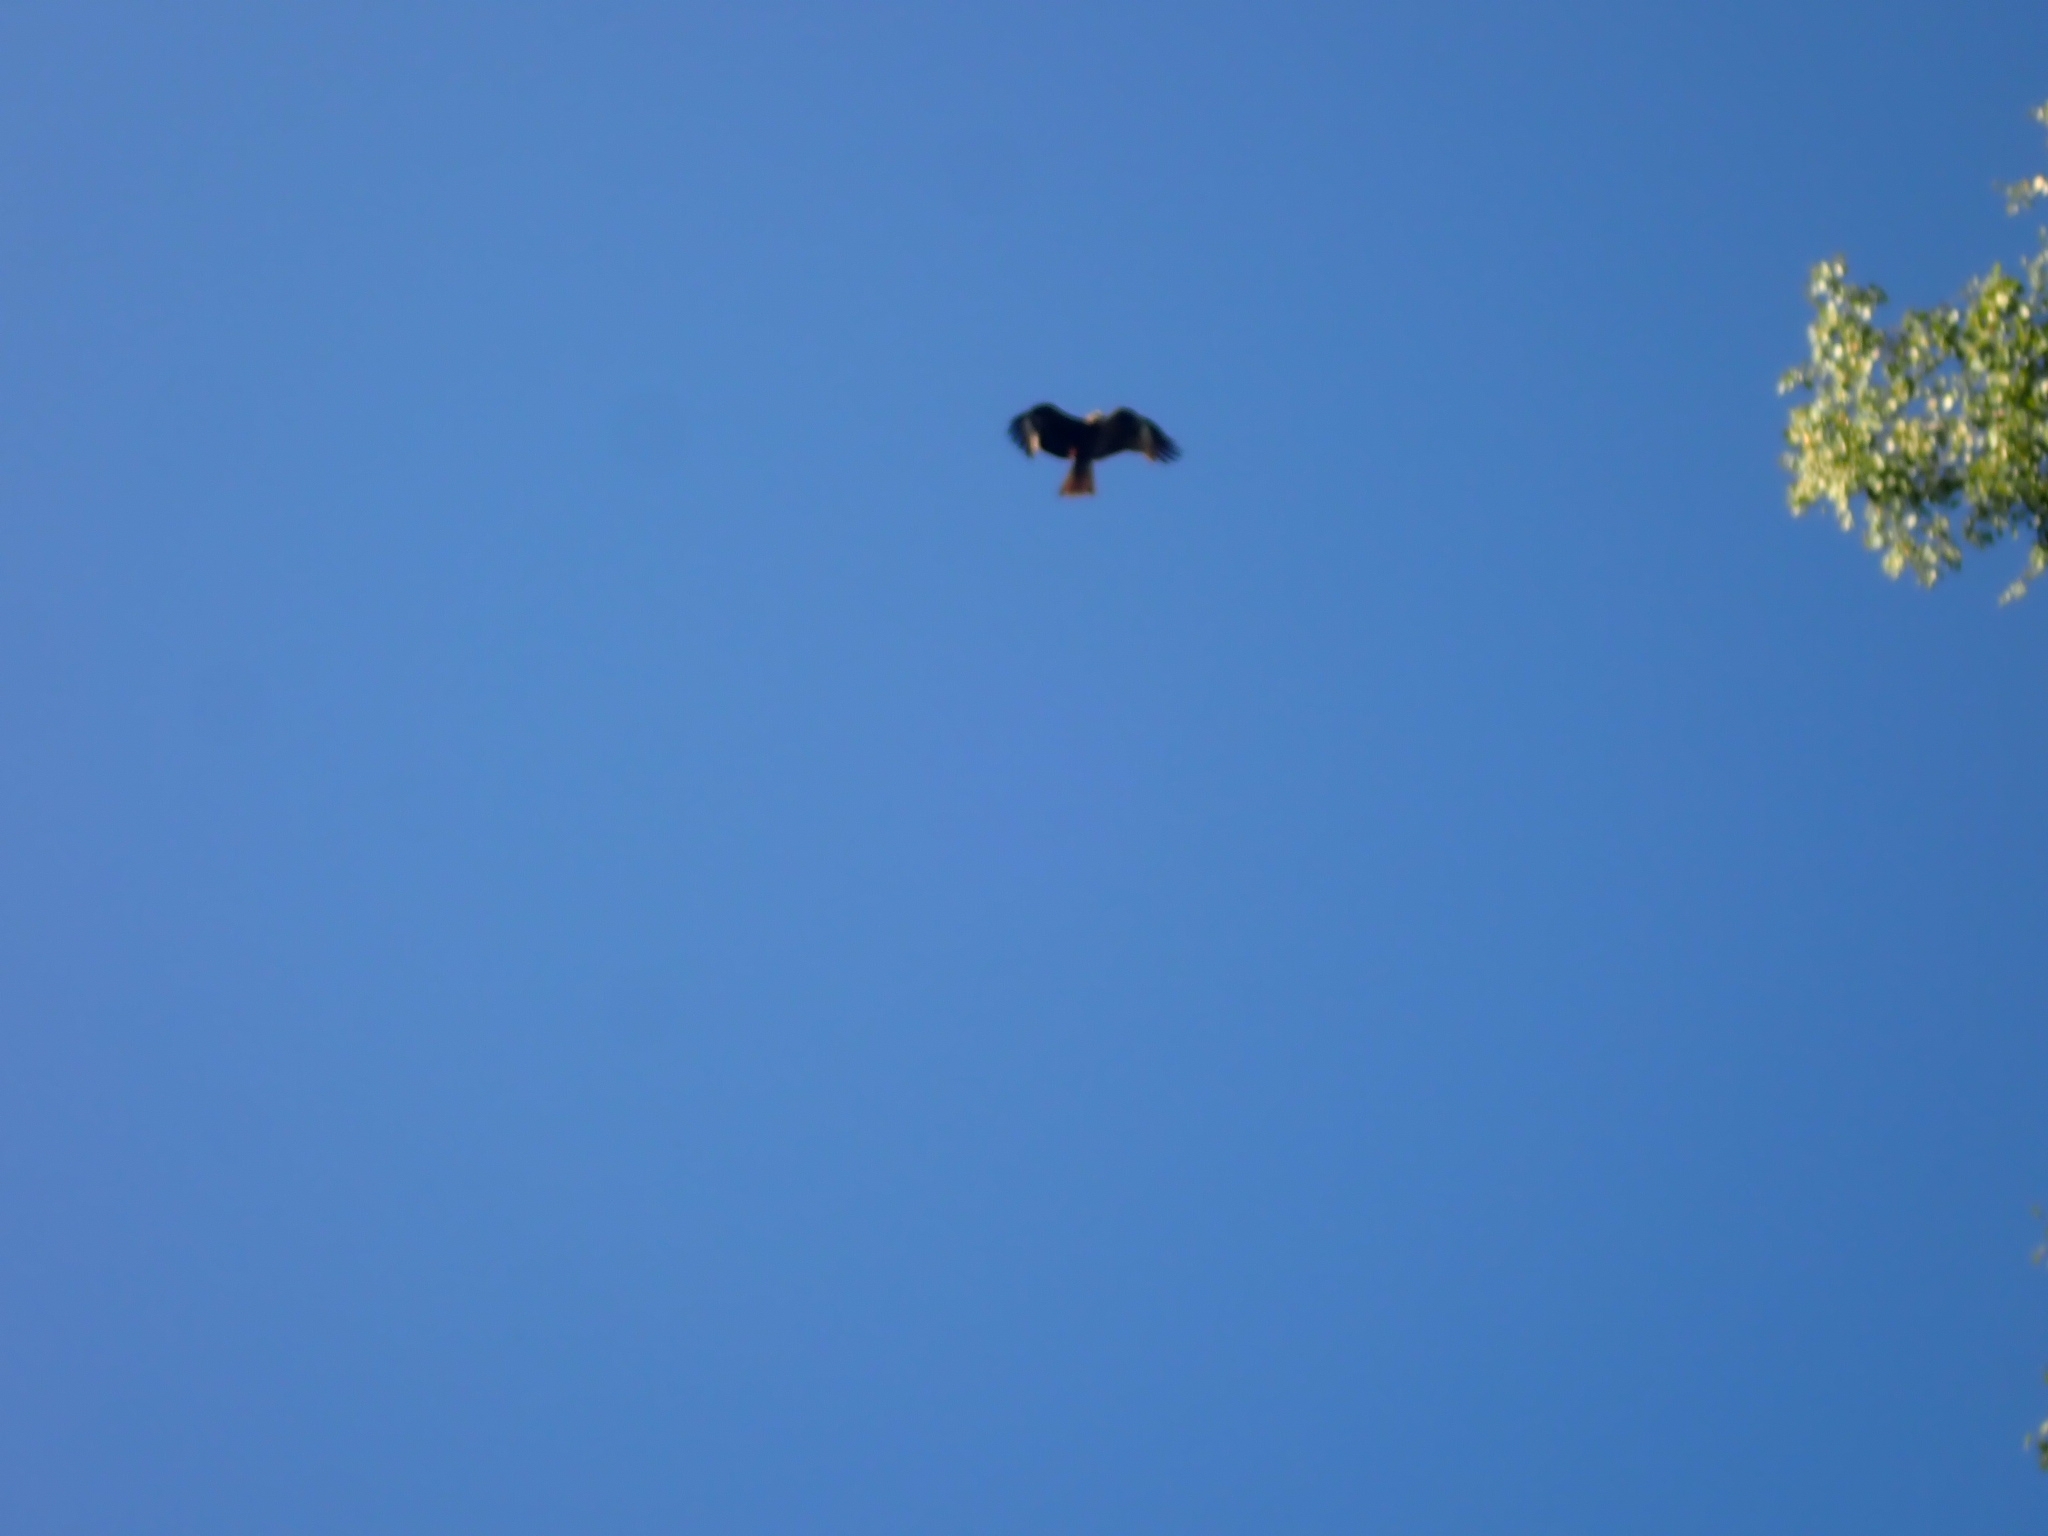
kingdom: Animalia
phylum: Chordata
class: Aves
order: Accipitriformes
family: Accipitridae
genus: Milvus
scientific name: Milvus migrans
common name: Black kite
